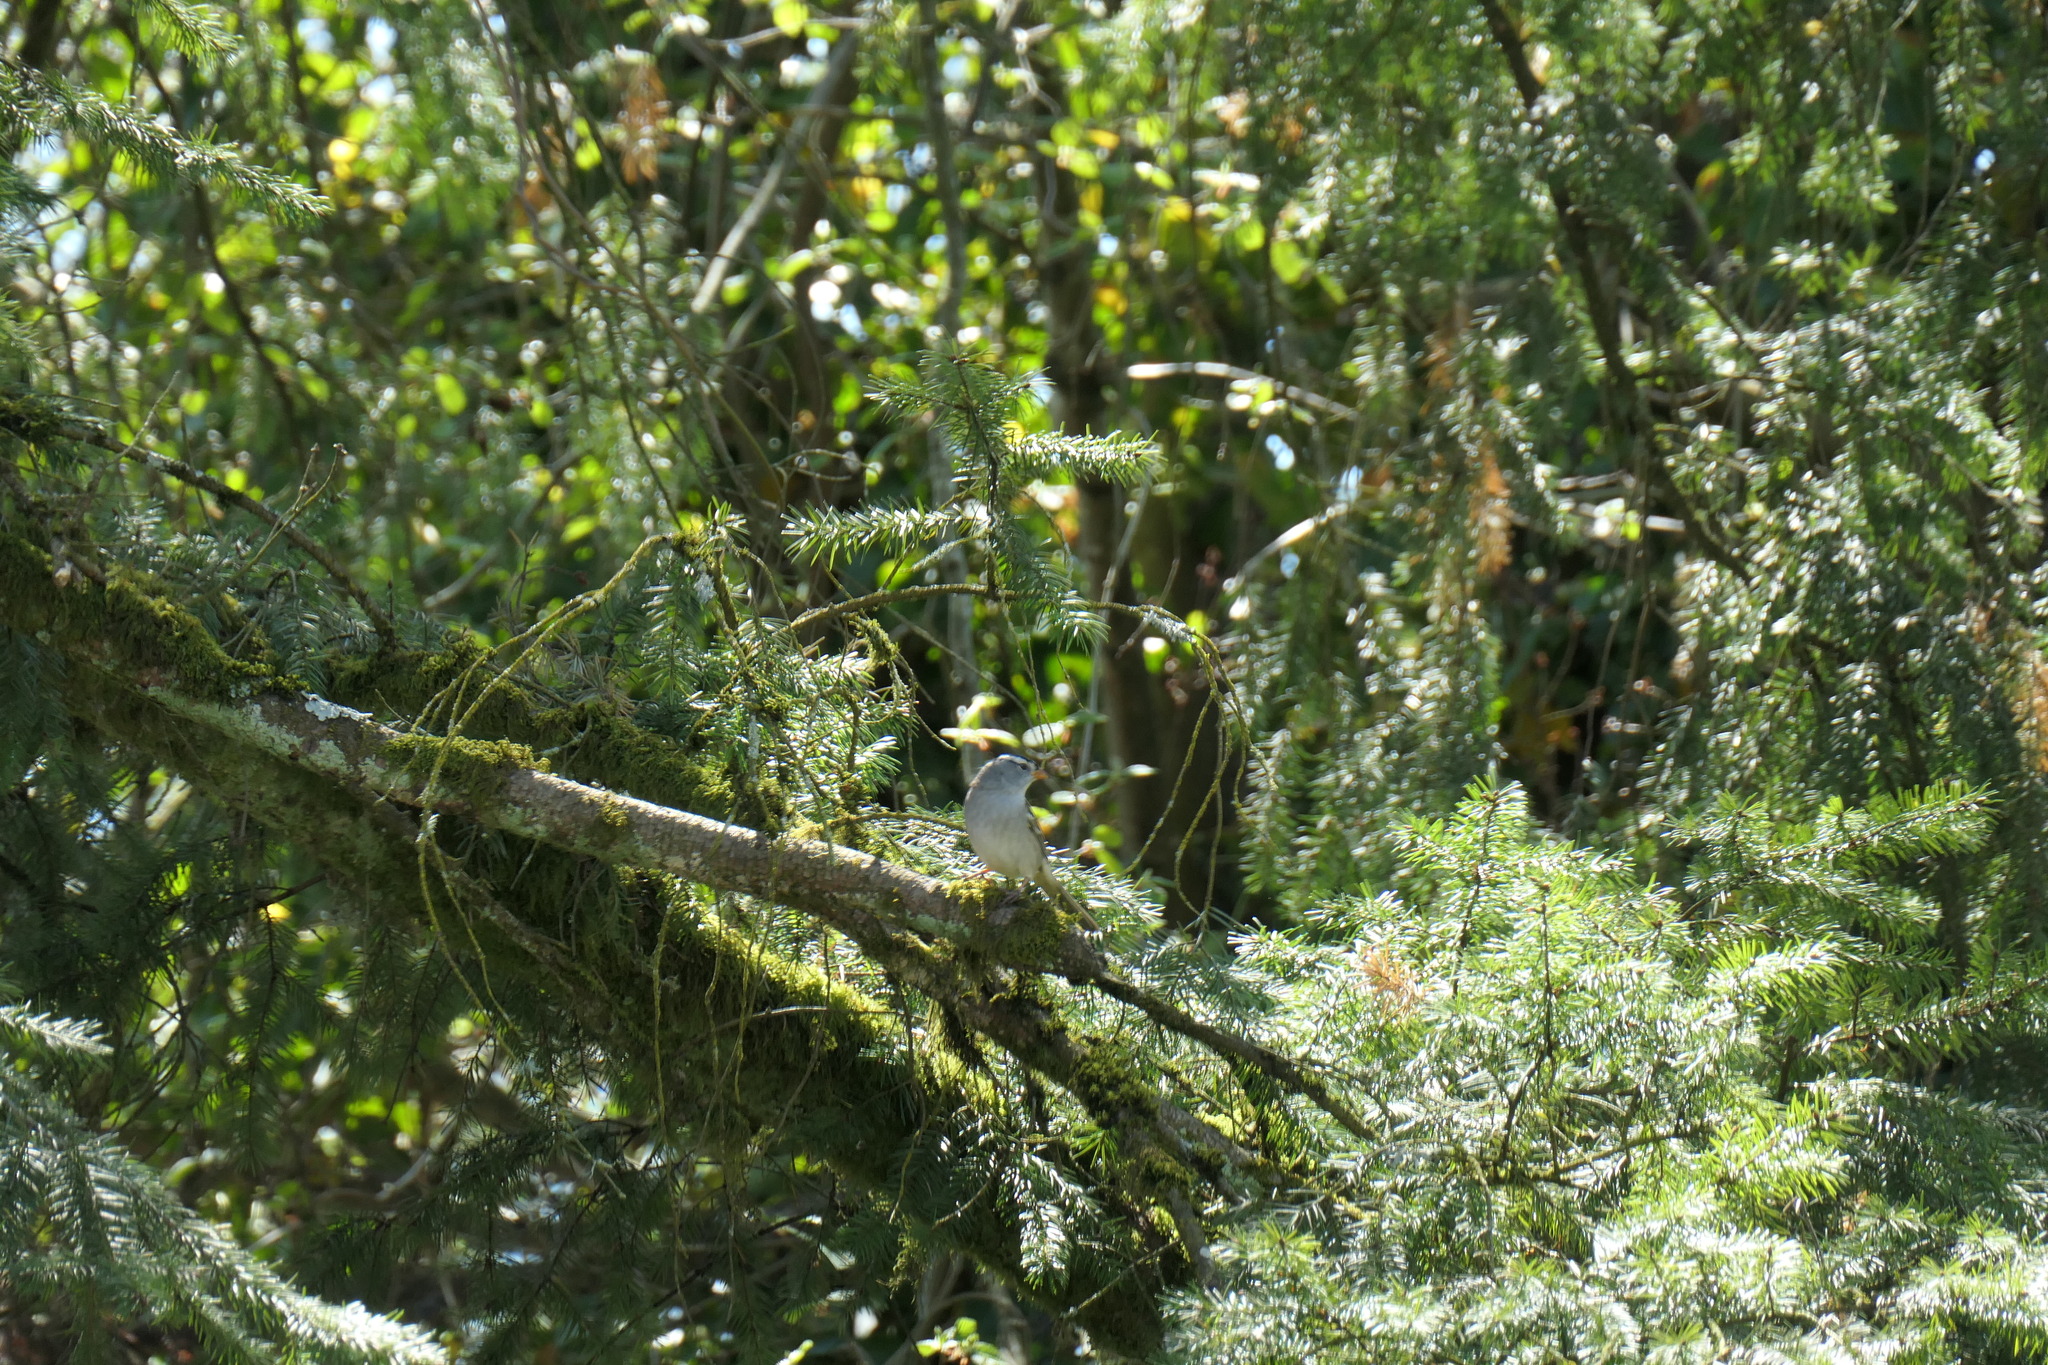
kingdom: Animalia
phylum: Chordata
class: Aves
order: Passeriformes
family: Passerellidae
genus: Zonotrichia
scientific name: Zonotrichia leucophrys
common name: White-crowned sparrow
